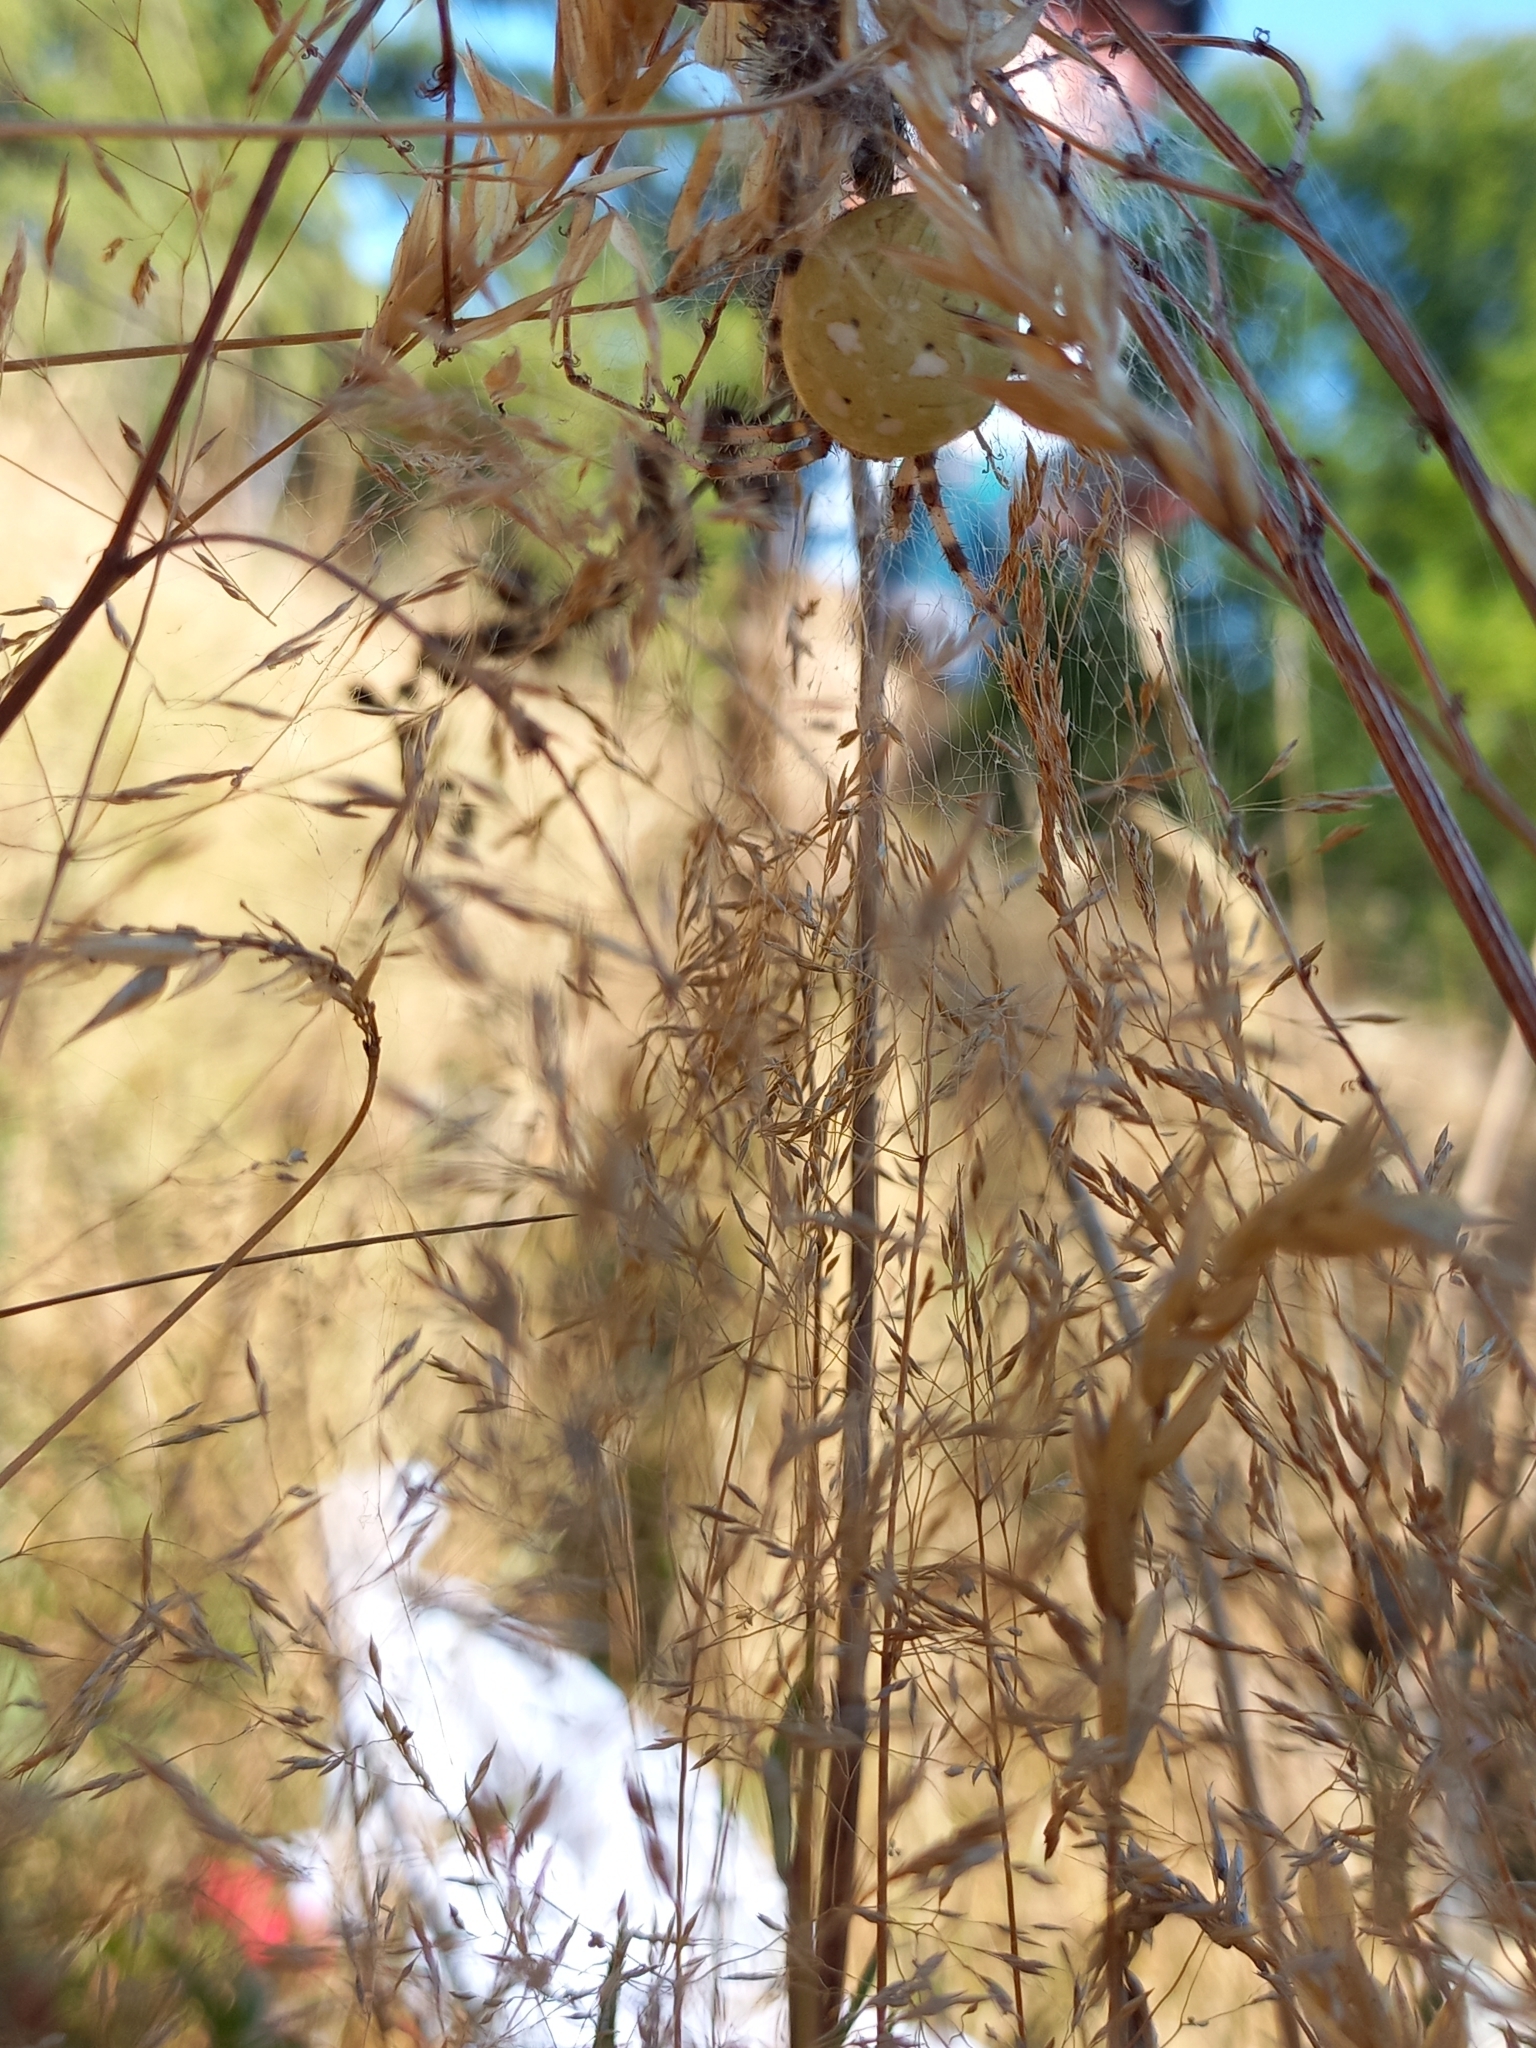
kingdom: Animalia
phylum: Arthropoda
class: Arachnida
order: Araneae
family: Araneidae
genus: Araneus
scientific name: Araneus quadratus
